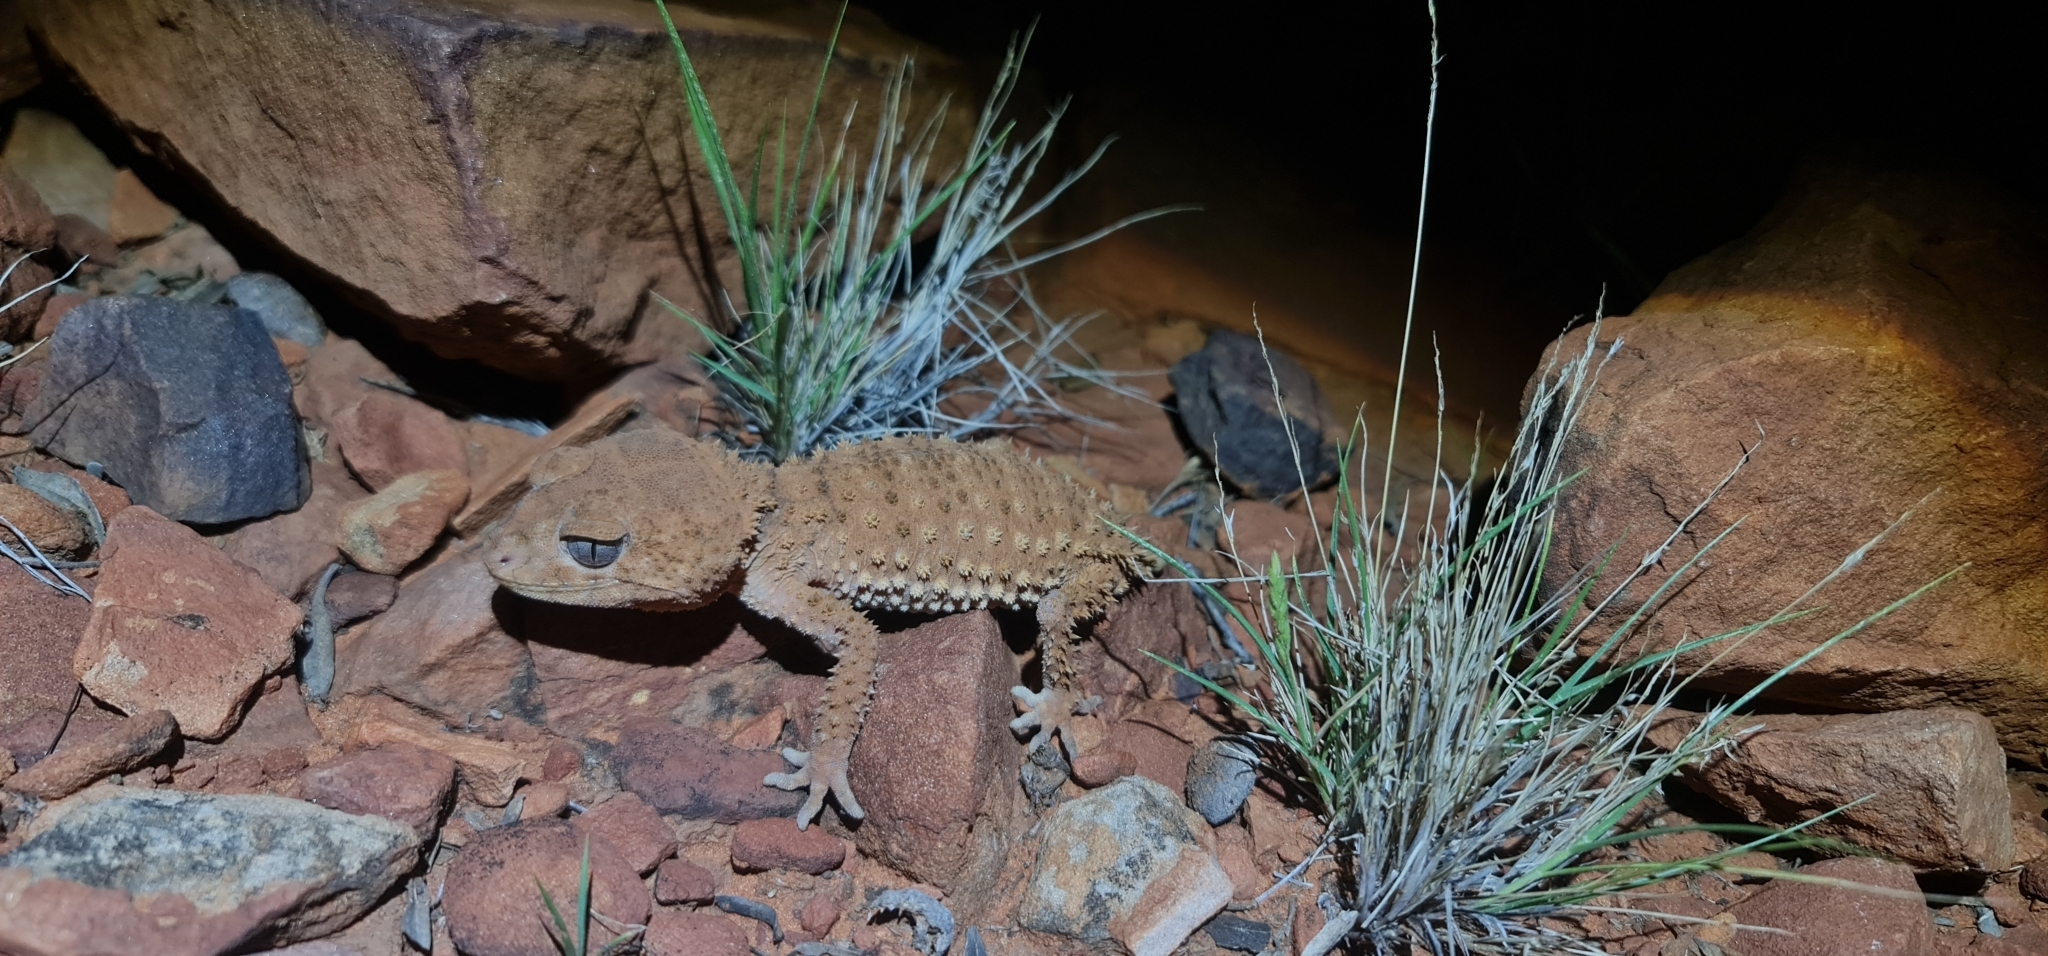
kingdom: Animalia
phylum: Chordata
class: Squamata
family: Carphodactylidae
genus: Nephrurus
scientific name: Nephrurus amyae
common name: Centralian rough knob-tail gecko
